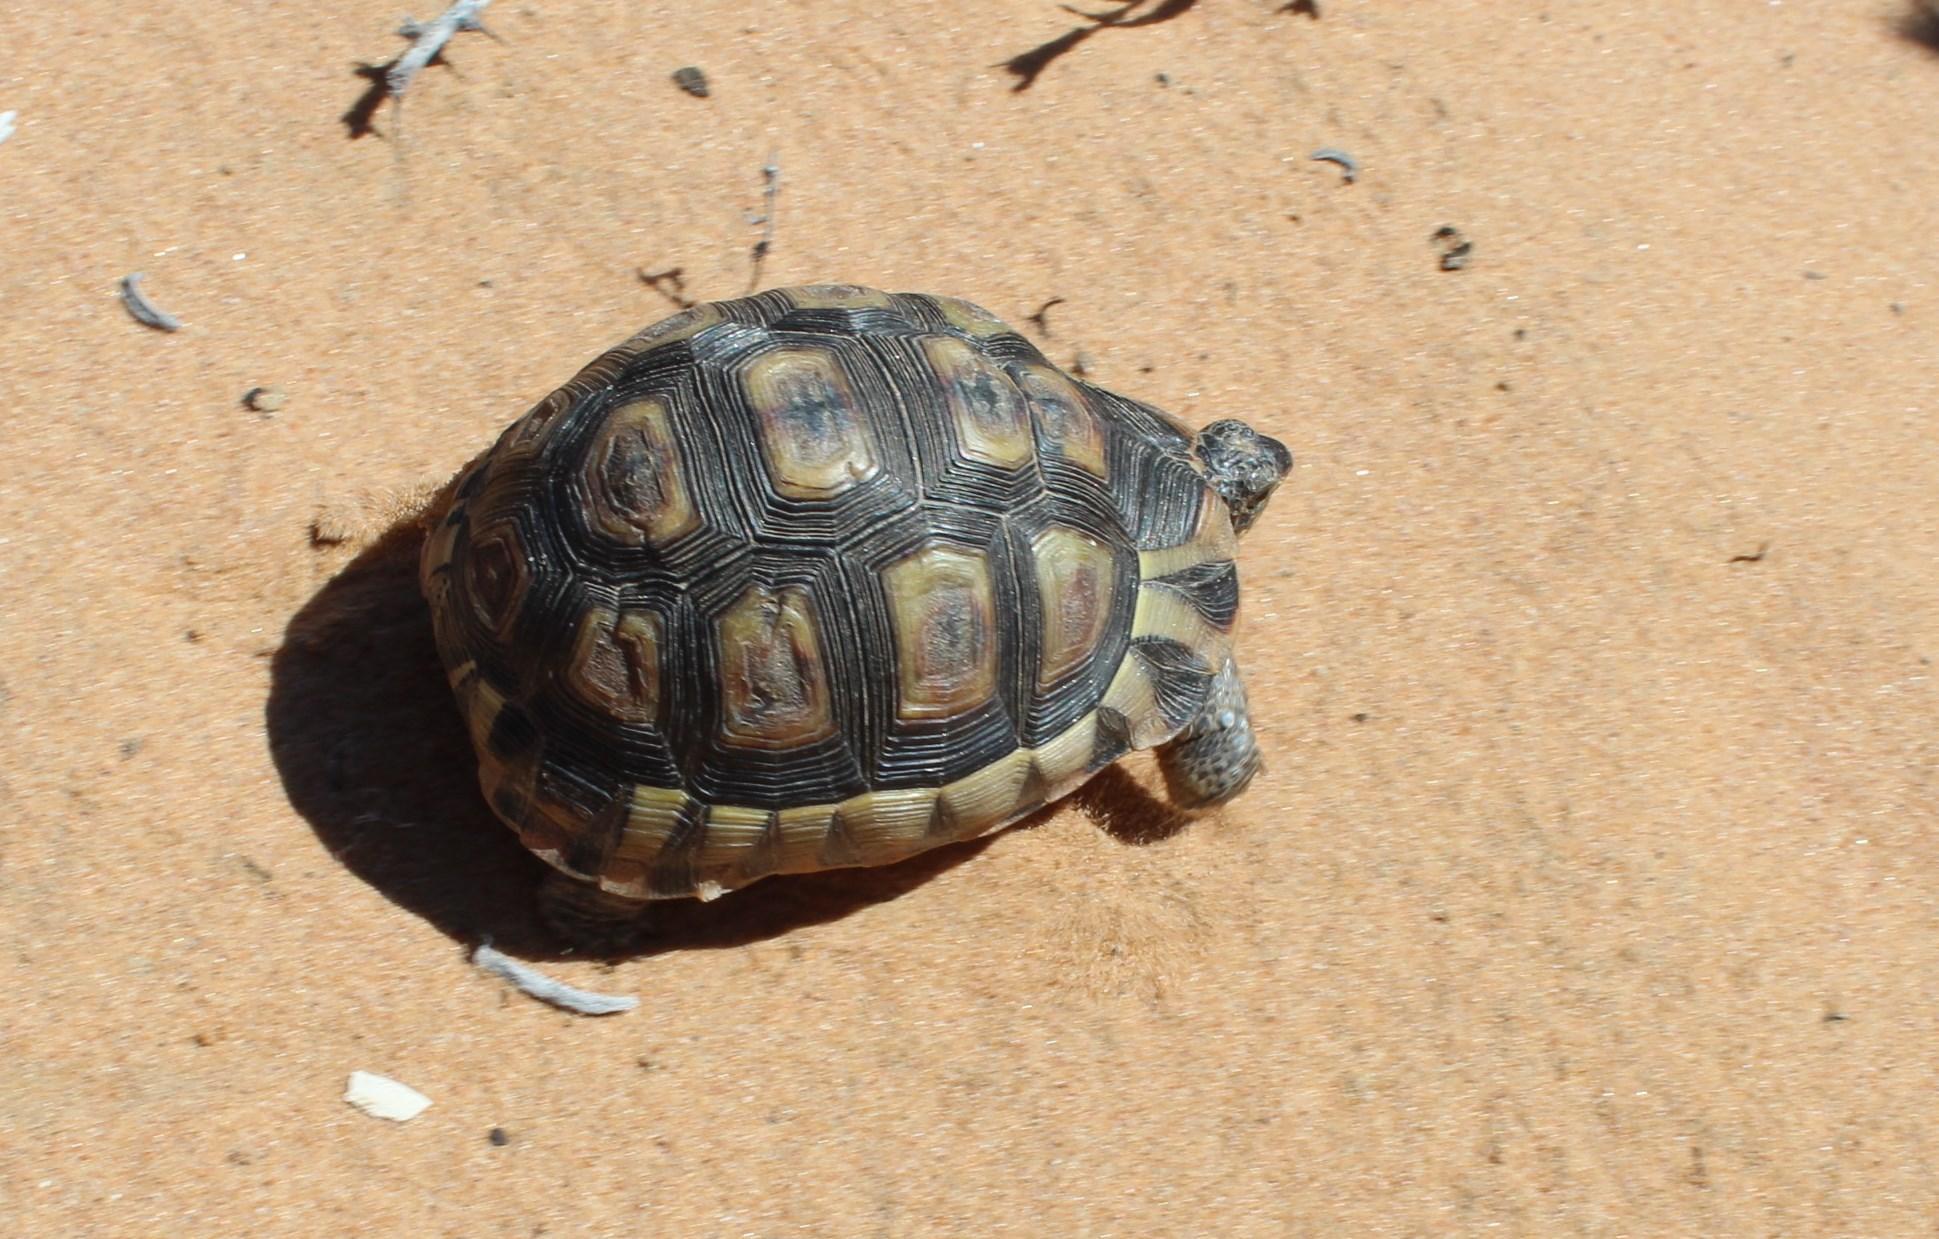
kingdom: Animalia
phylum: Chordata
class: Testudines
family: Testudinidae
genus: Chersina
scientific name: Chersina angulata
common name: South african bowsprit tortoise
